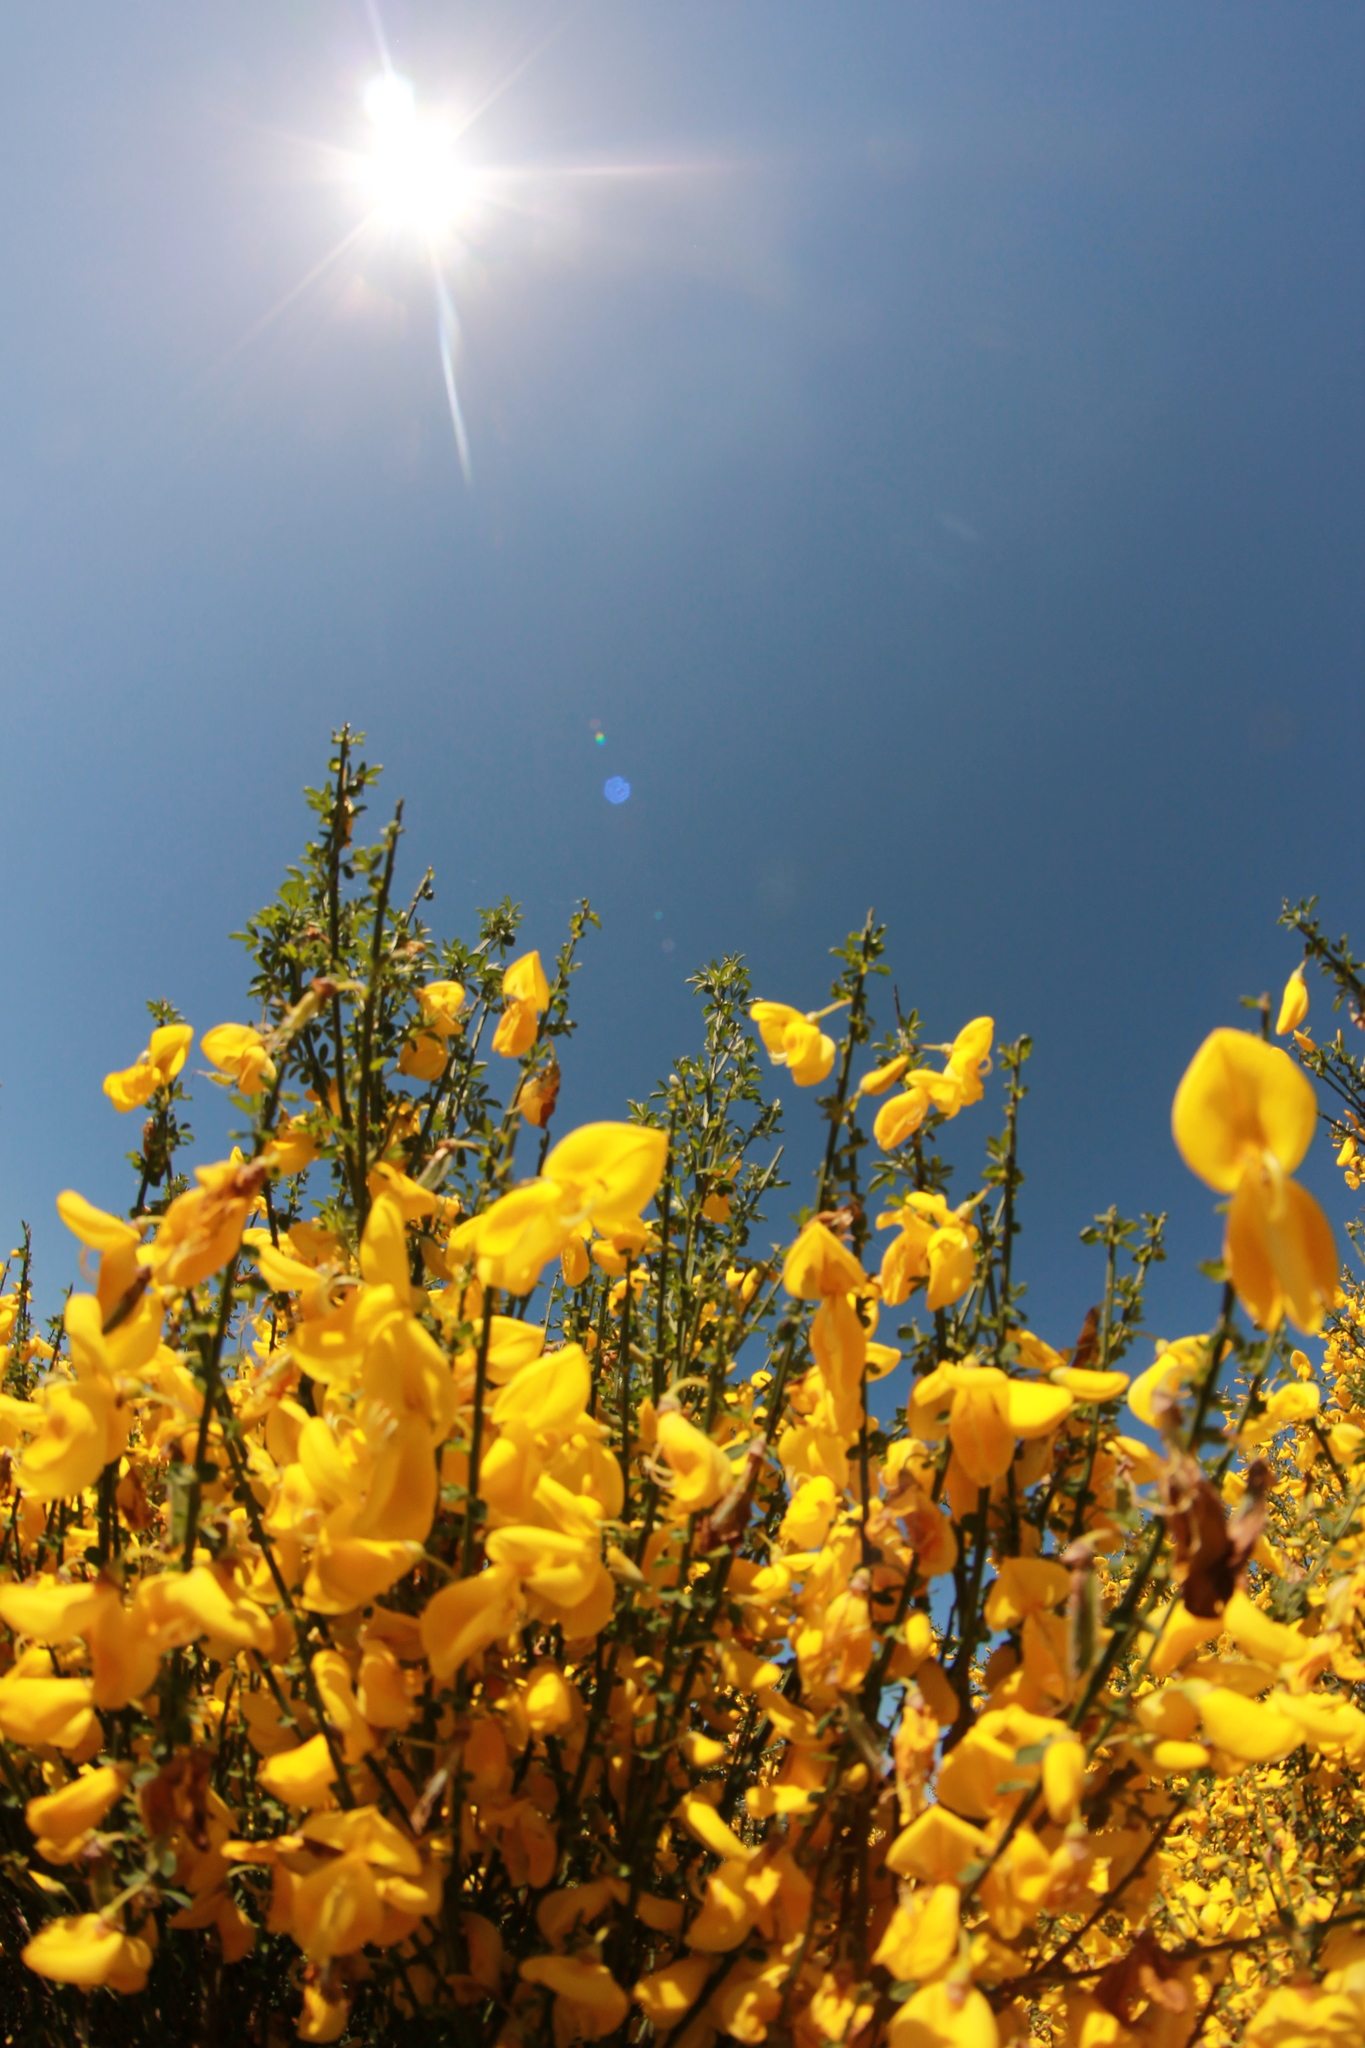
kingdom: Plantae
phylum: Tracheophyta
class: Magnoliopsida
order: Fabales
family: Fabaceae
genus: Cytisus
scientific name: Cytisus scoparius
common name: Scotch broom
